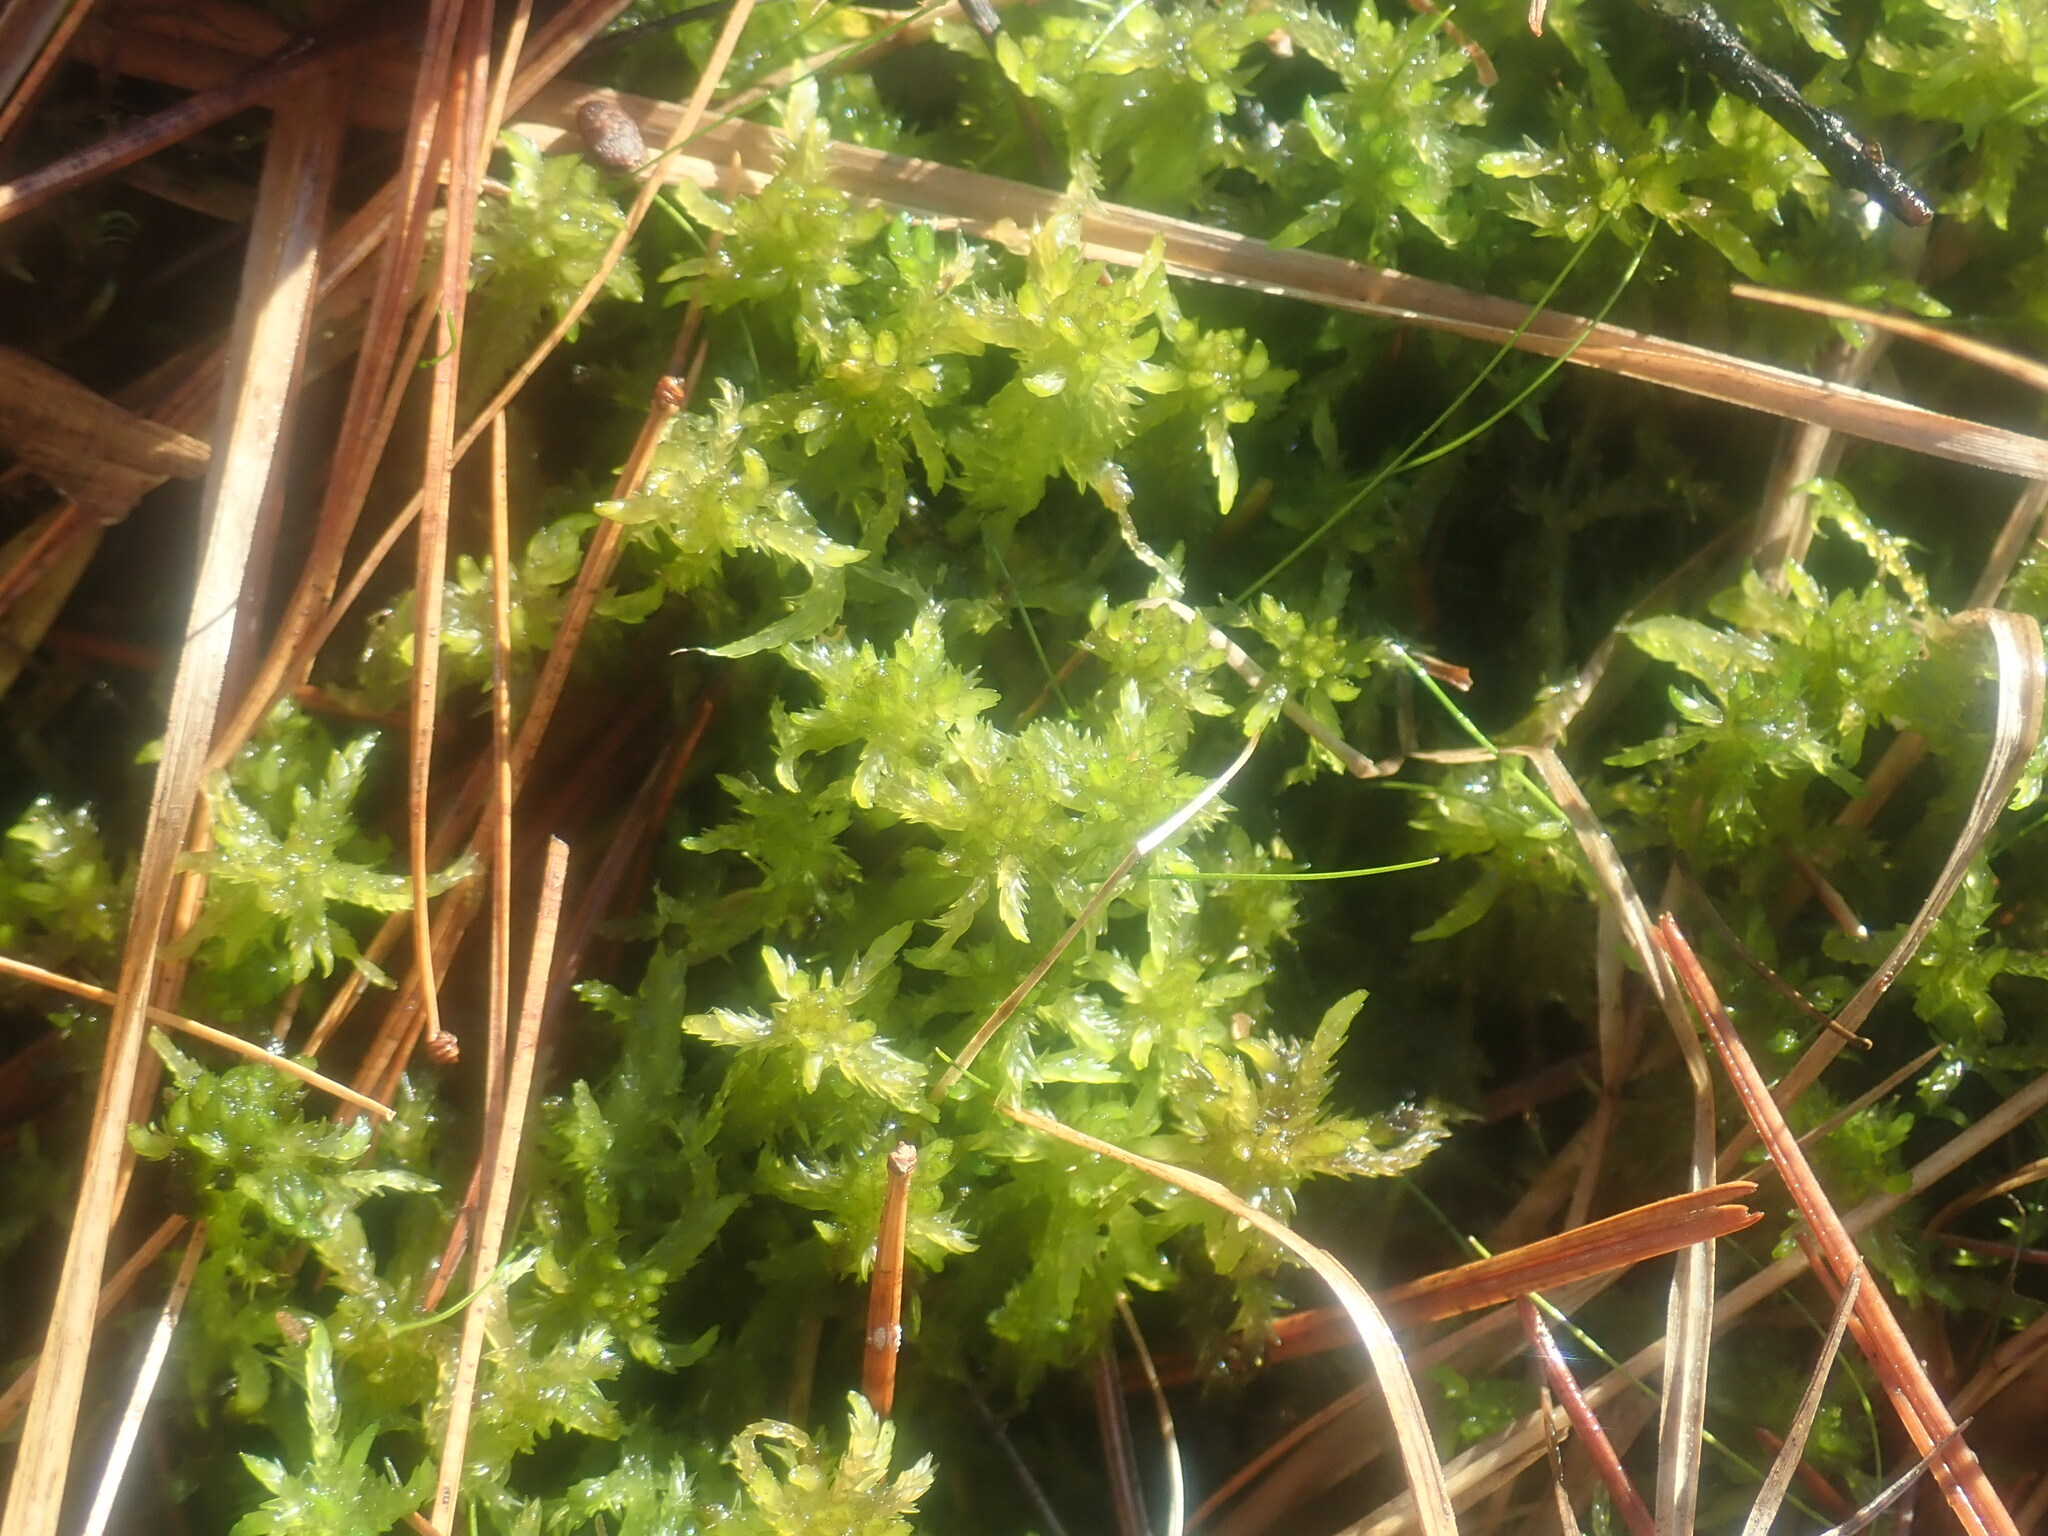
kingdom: Plantae
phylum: Bryophyta
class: Sphagnopsida
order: Sphagnales
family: Sphagnaceae
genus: Sphagnum
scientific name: Sphagnum
